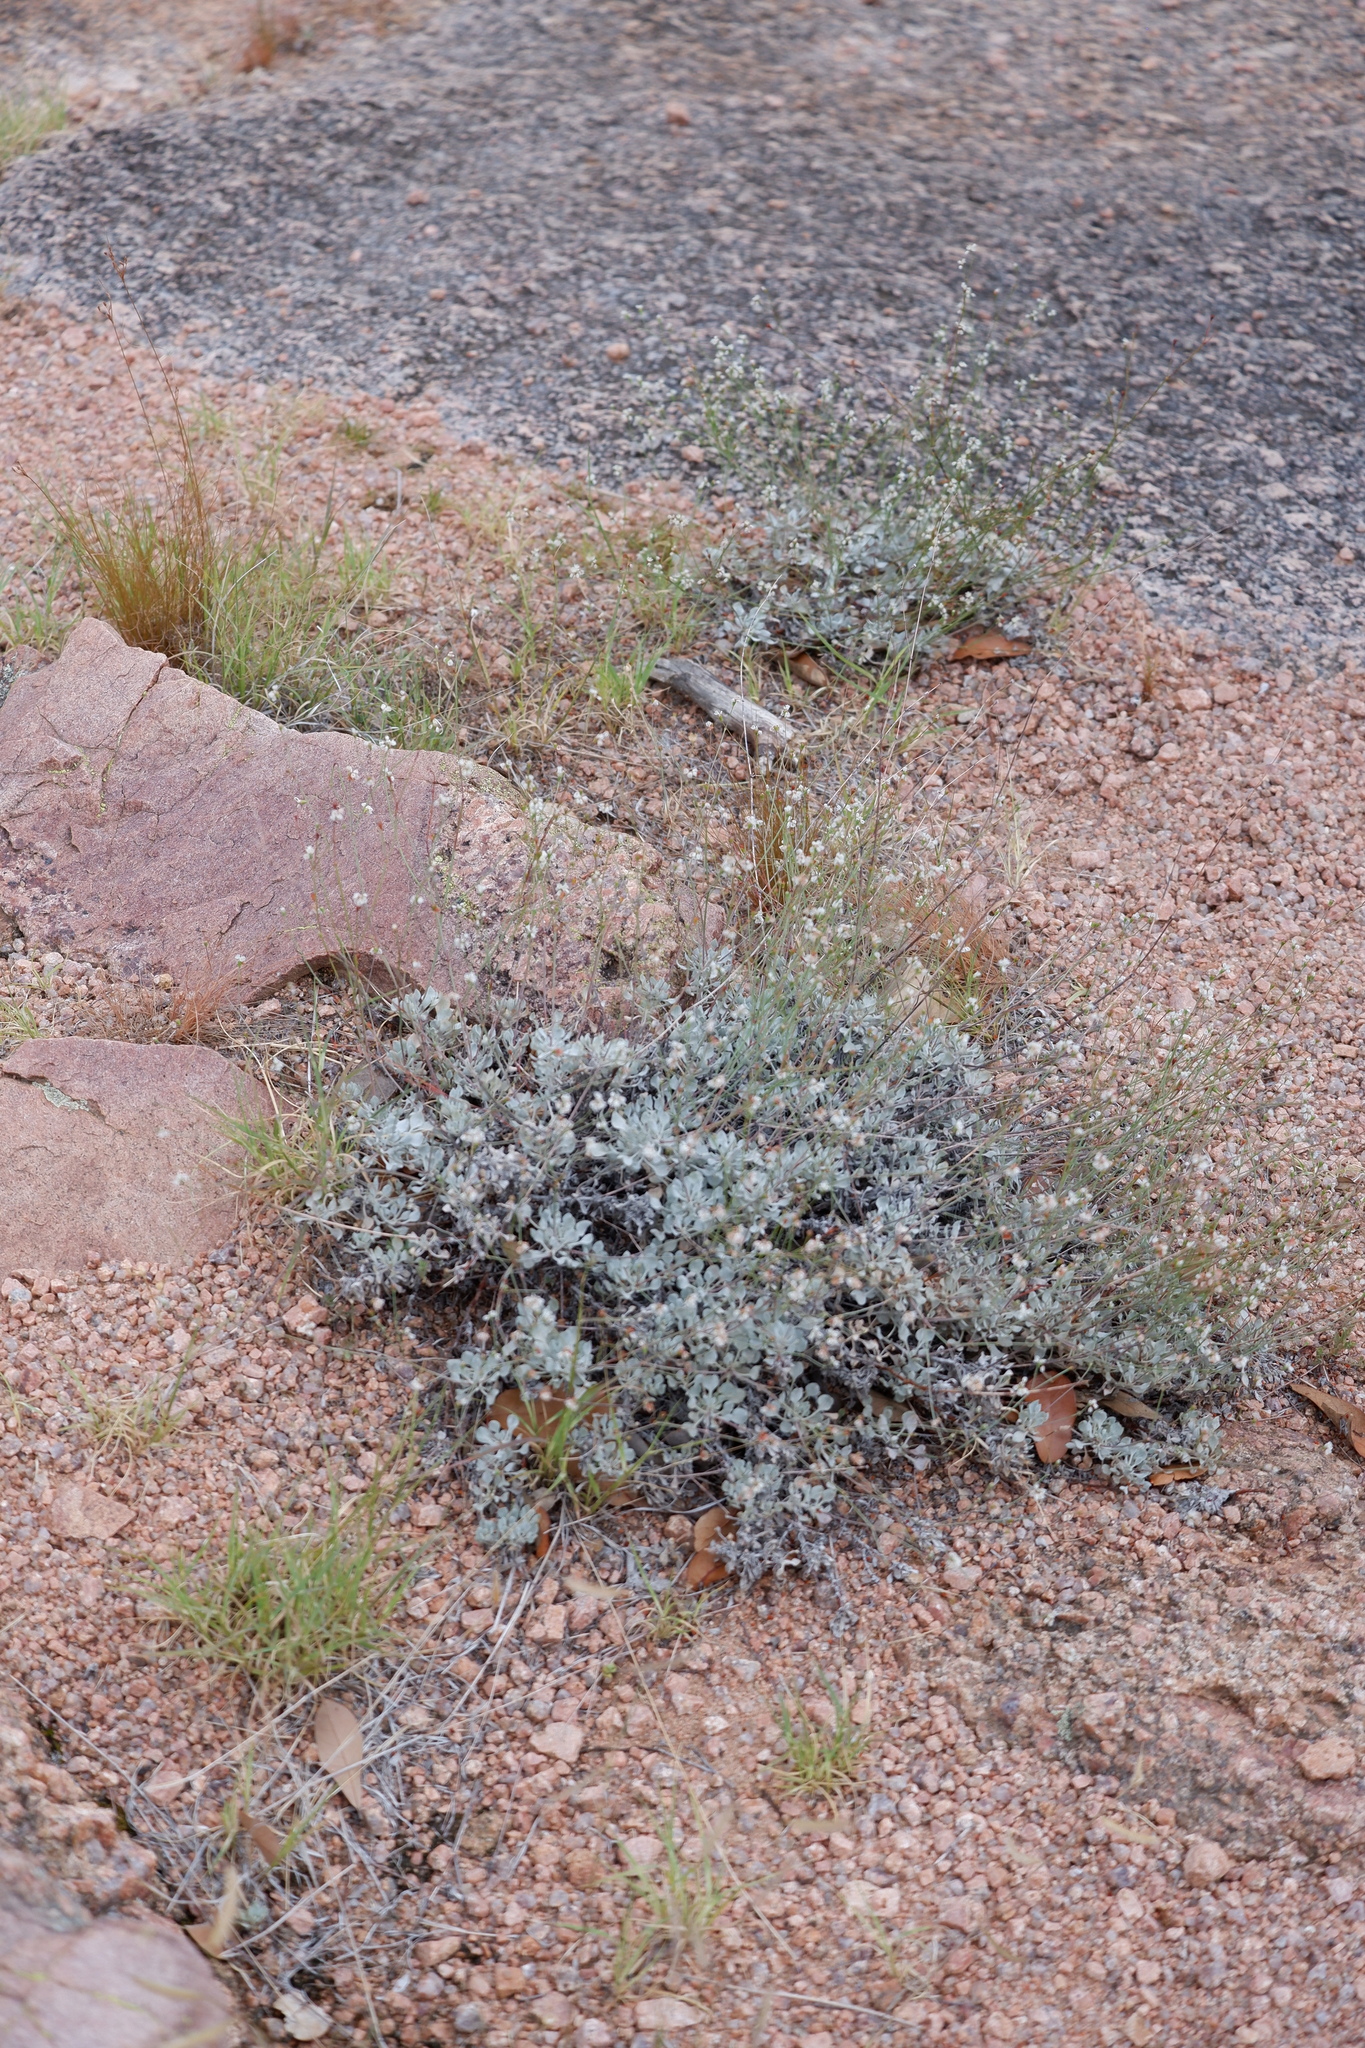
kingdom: Plantae
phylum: Tracheophyta
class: Magnoliopsida
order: Caryophyllales
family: Polygonaceae
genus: Eriogonum
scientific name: Eriogonum graniticum
